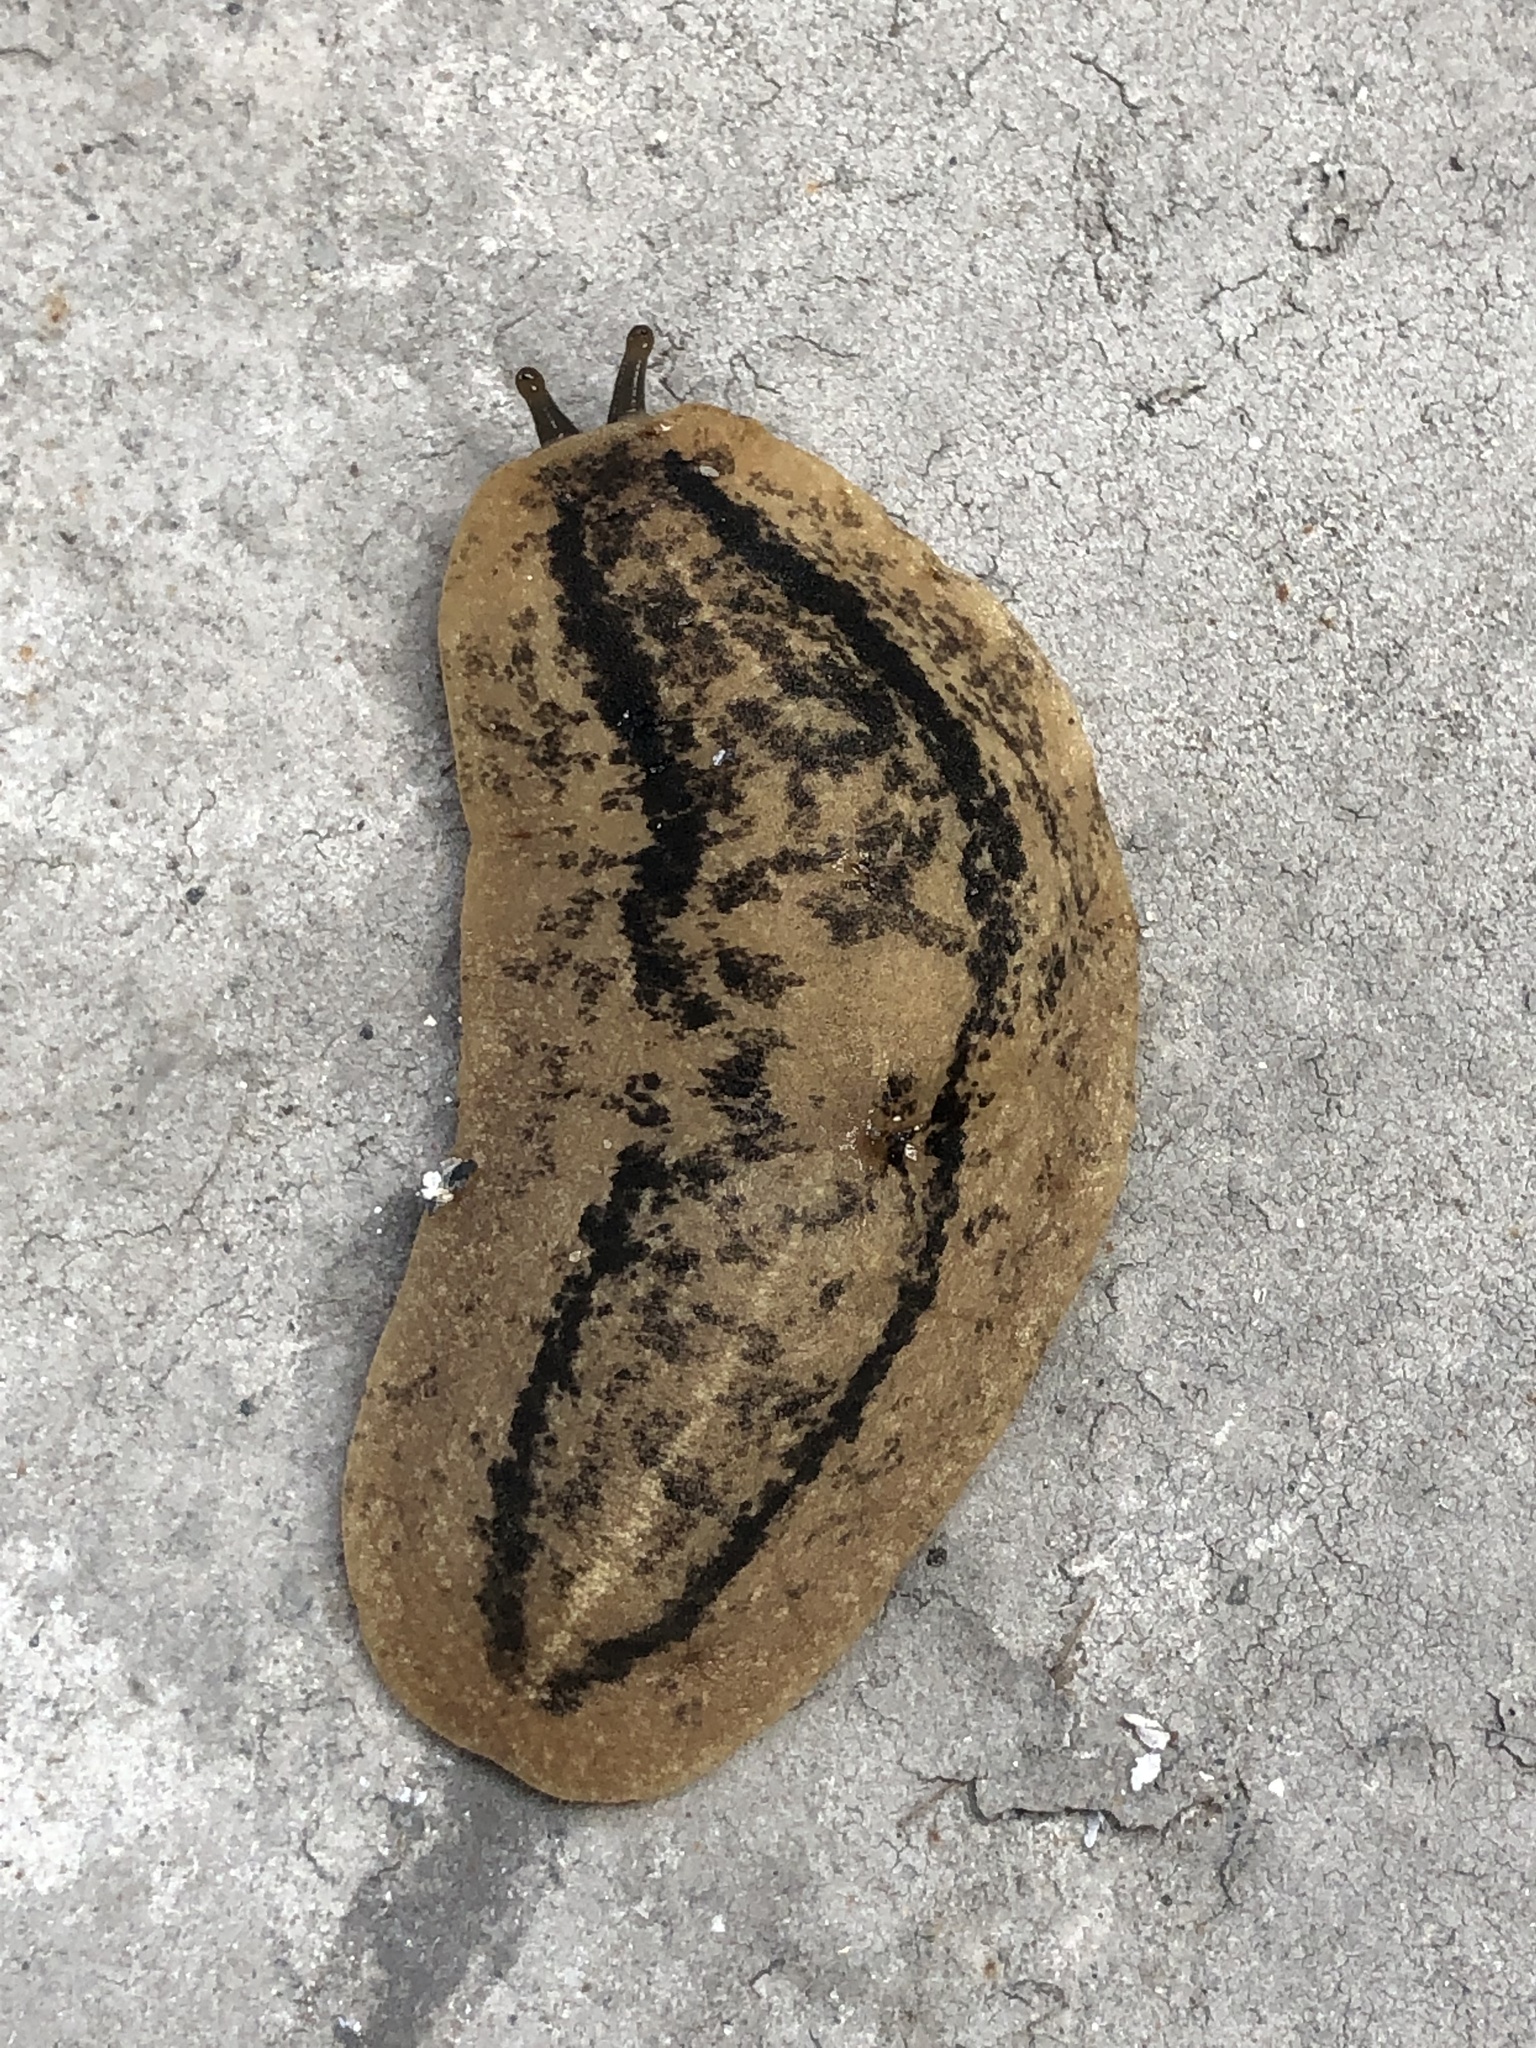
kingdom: Animalia
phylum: Mollusca
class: Gastropoda
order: Systellommatophora
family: Veronicellidae
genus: Leidyula
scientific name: Leidyula floridana
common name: Florida leatherleaf
